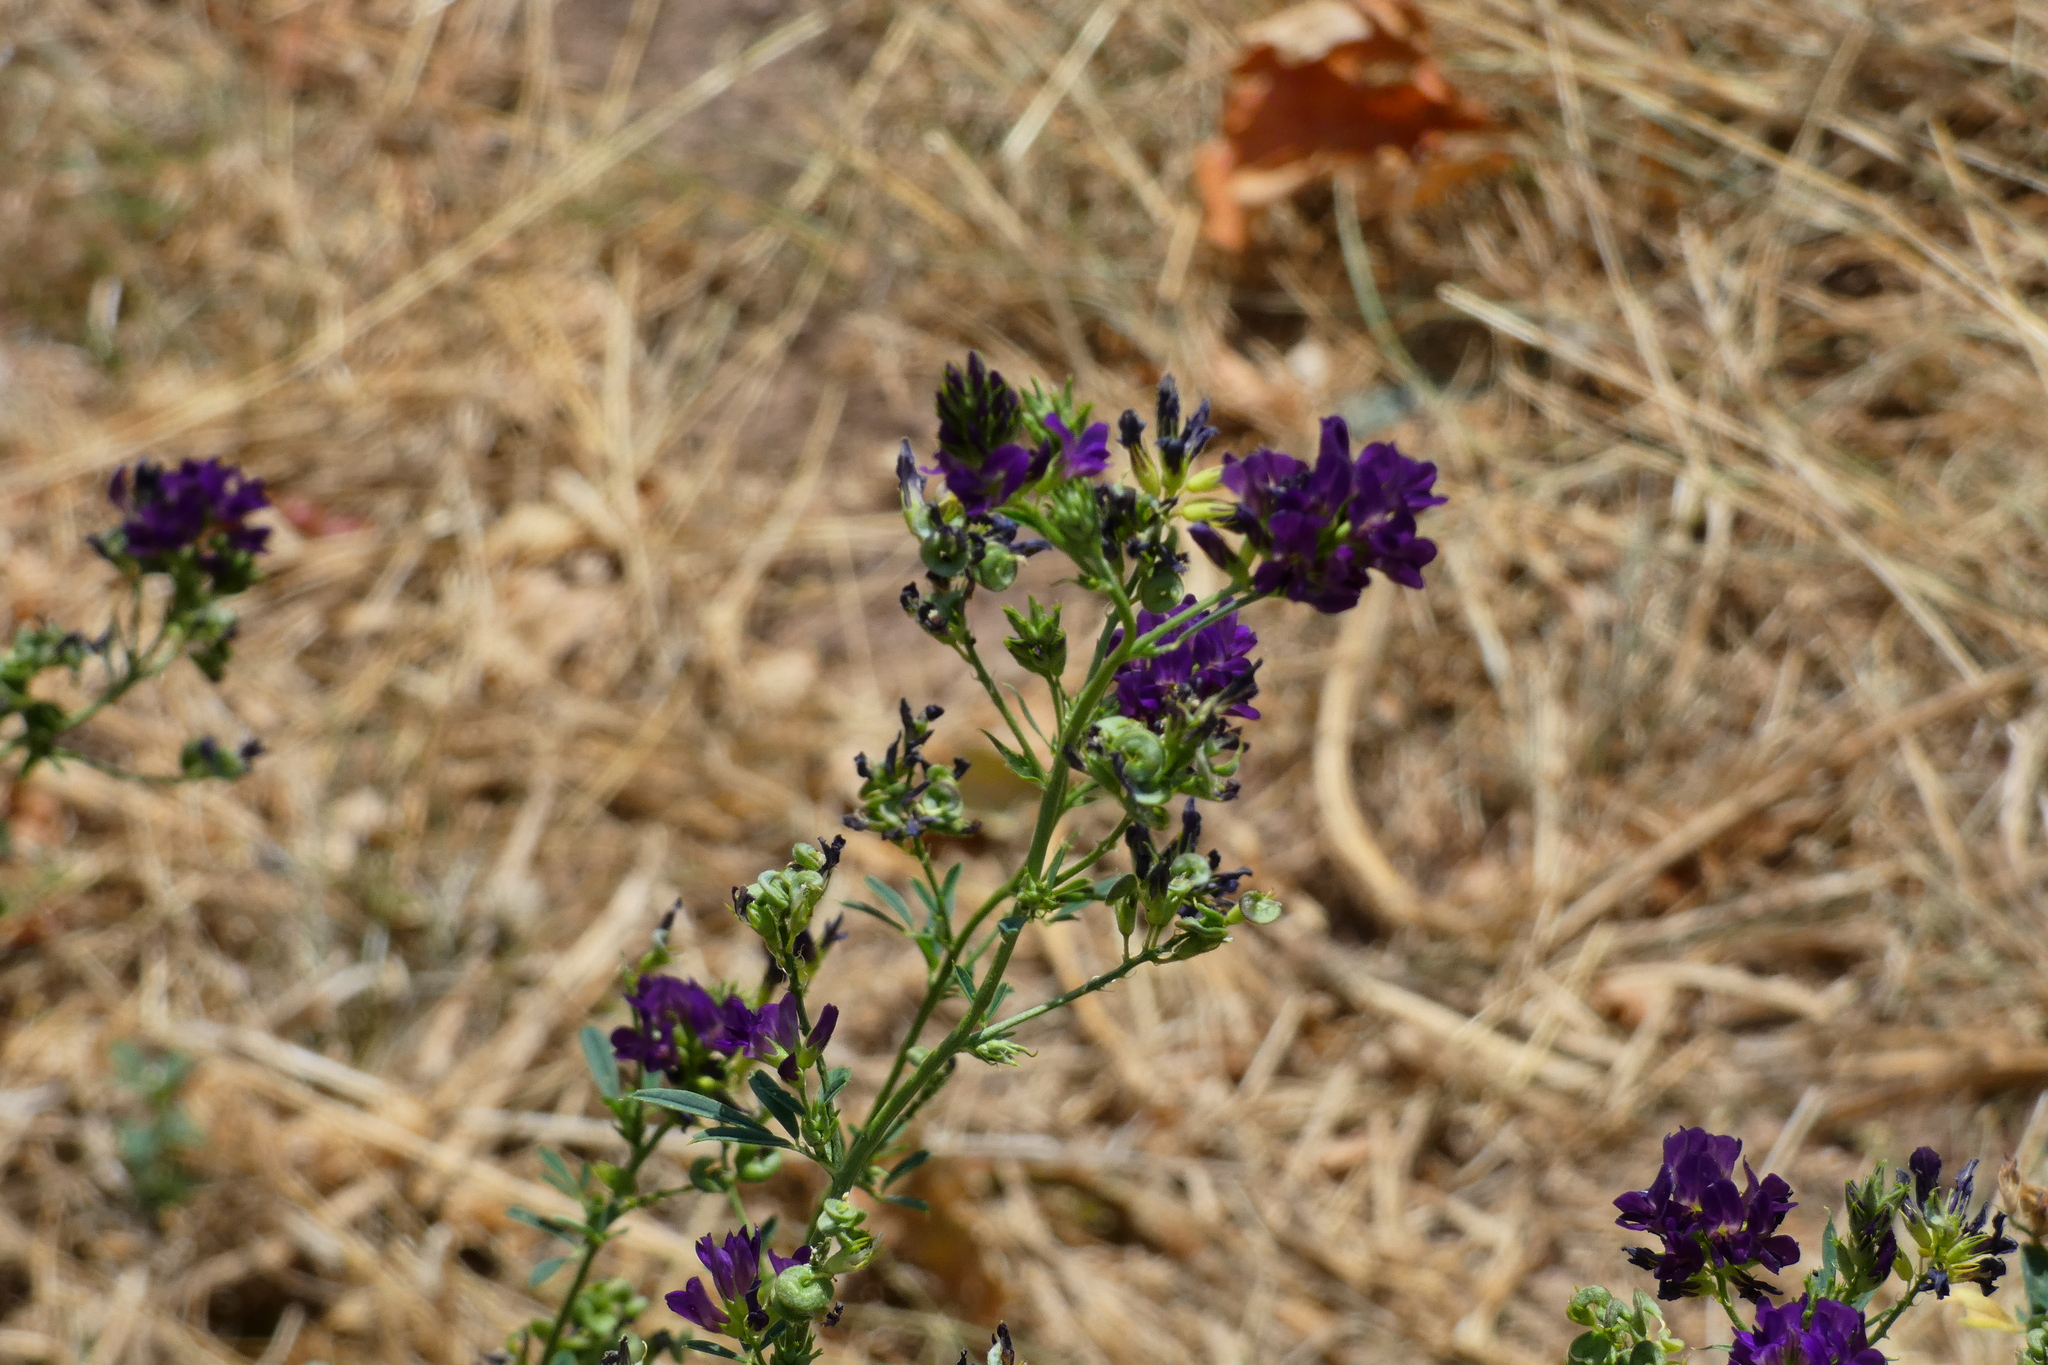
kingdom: Plantae
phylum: Tracheophyta
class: Magnoliopsida
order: Fabales
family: Fabaceae
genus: Medicago
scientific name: Medicago sativa
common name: Alfalfa
